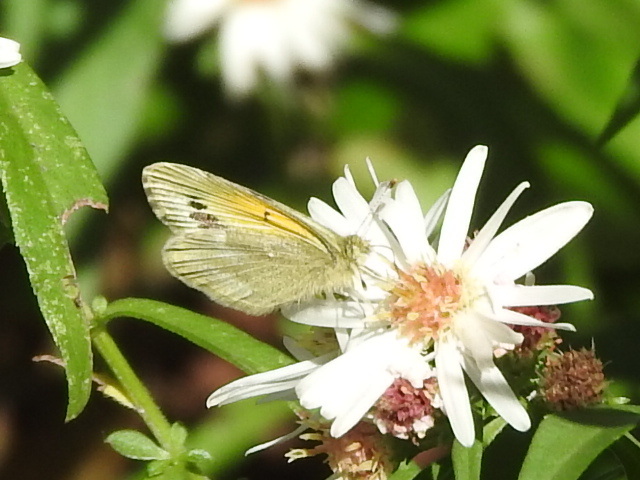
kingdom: Animalia
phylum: Arthropoda
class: Insecta
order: Lepidoptera
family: Pieridae
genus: Nathalis
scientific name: Nathalis iole
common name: Dainty sulphur
